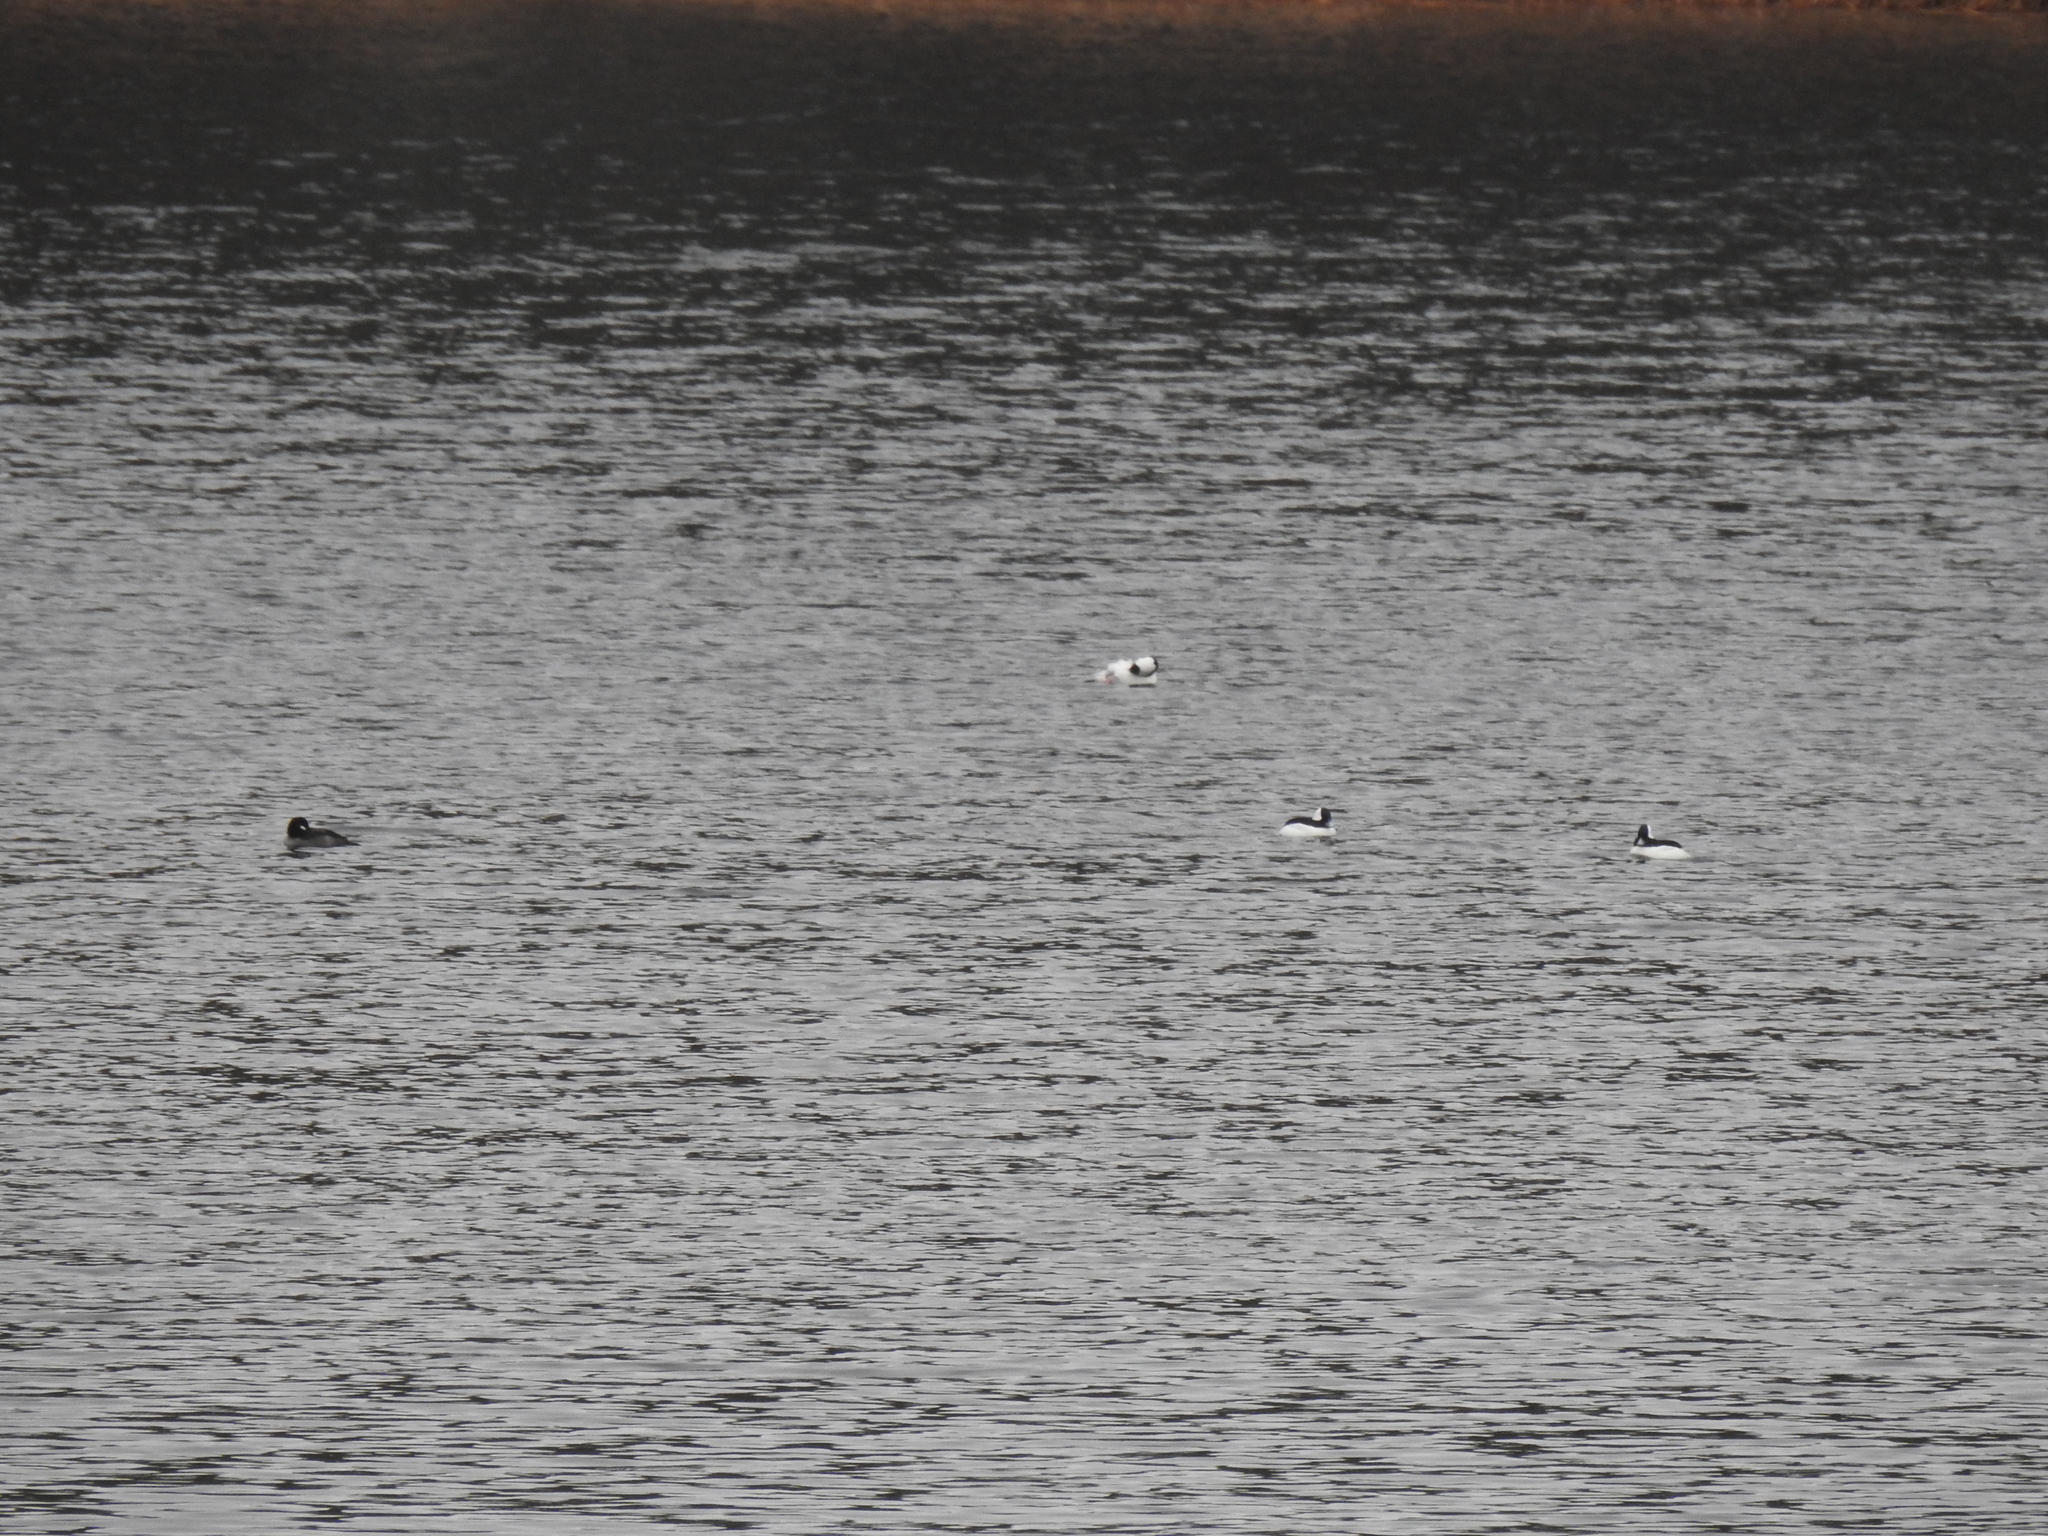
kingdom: Animalia
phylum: Chordata
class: Aves
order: Anseriformes
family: Anatidae
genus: Bucephala
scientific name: Bucephala albeola
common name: Bufflehead
